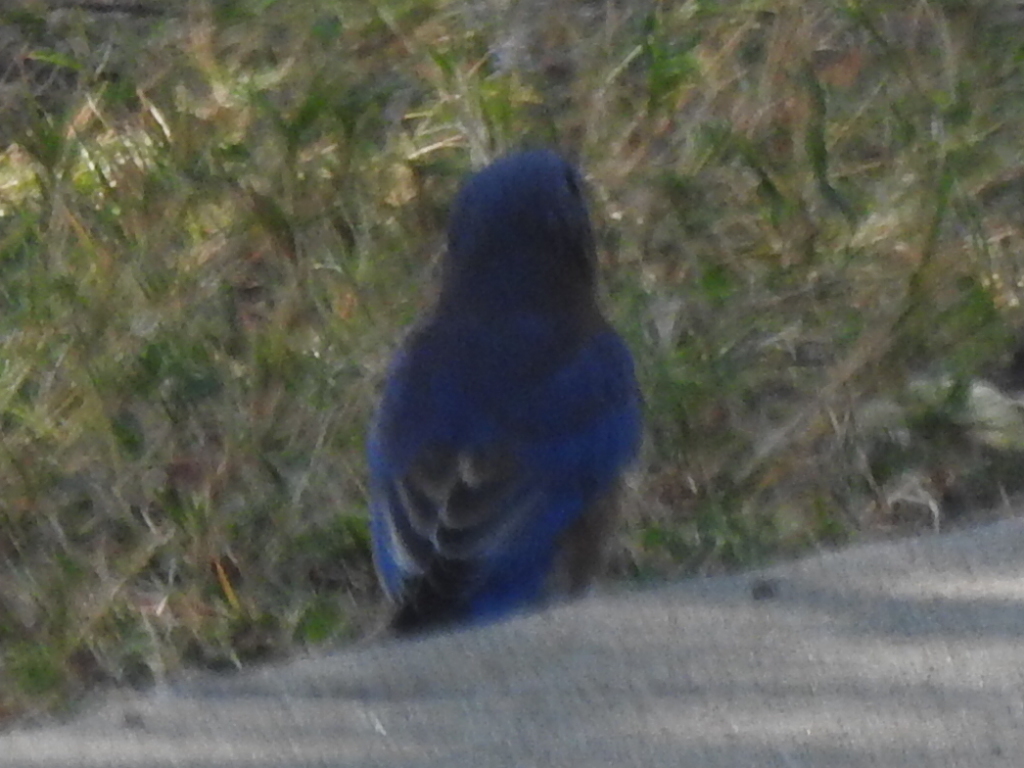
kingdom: Animalia
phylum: Chordata
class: Aves
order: Passeriformes
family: Turdidae
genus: Sialia
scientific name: Sialia sialis
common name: Eastern bluebird
